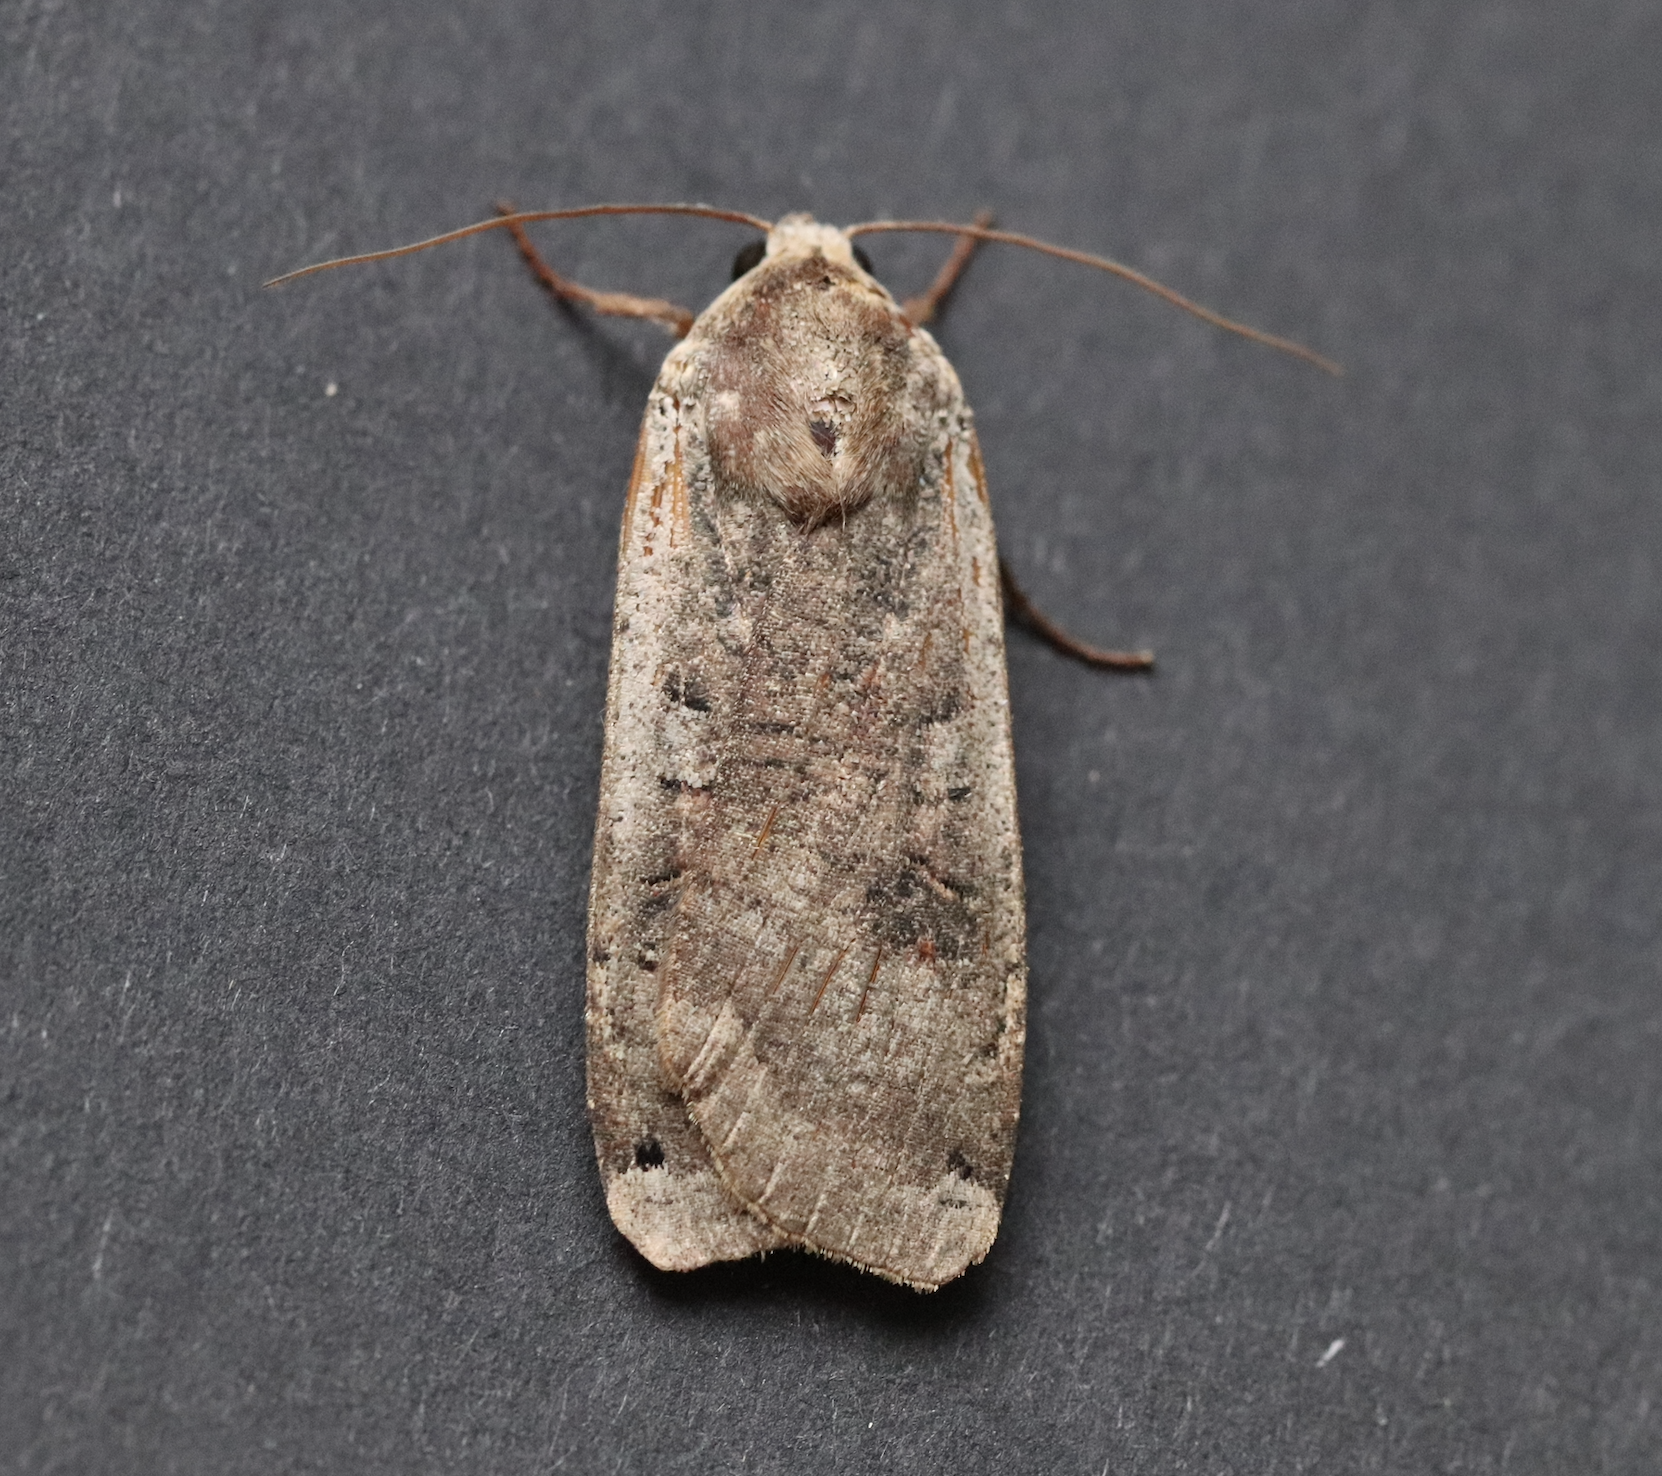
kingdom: Animalia
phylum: Arthropoda
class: Insecta
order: Lepidoptera
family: Noctuidae
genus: Noctua
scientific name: Noctua pronuba
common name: Large yellow underwing
